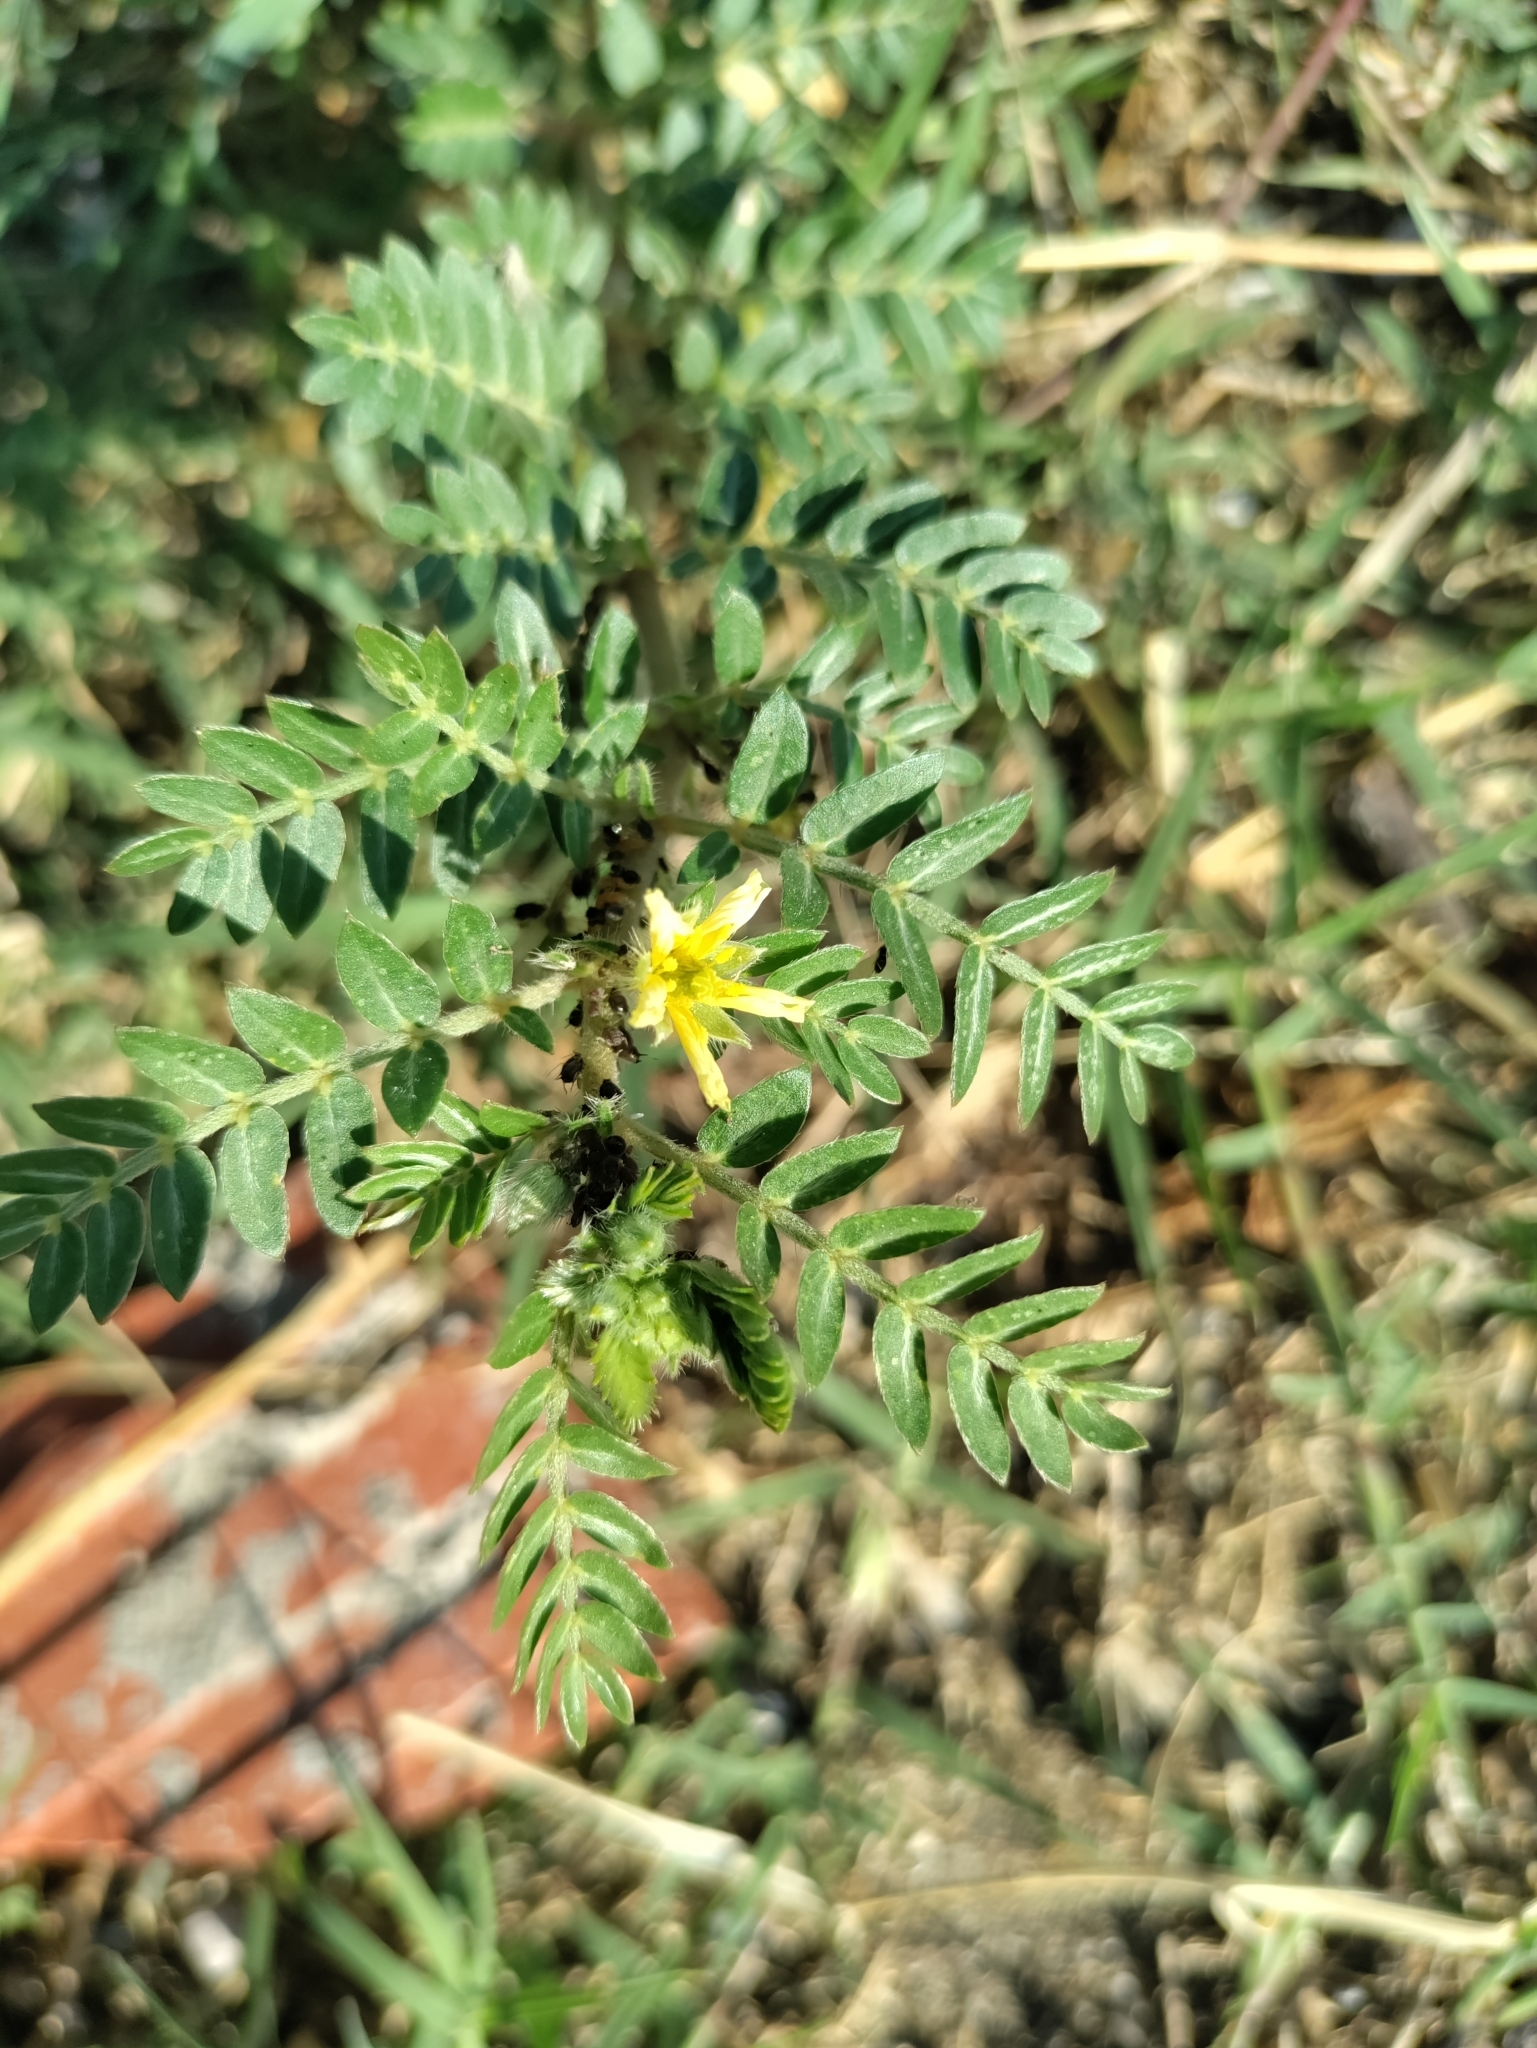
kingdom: Plantae
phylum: Tracheophyta
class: Magnoliopsida
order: Zygophyllales
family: Zygophyllaceae
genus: Tribulus
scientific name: Tribulus terrestris
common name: Puncturevine
